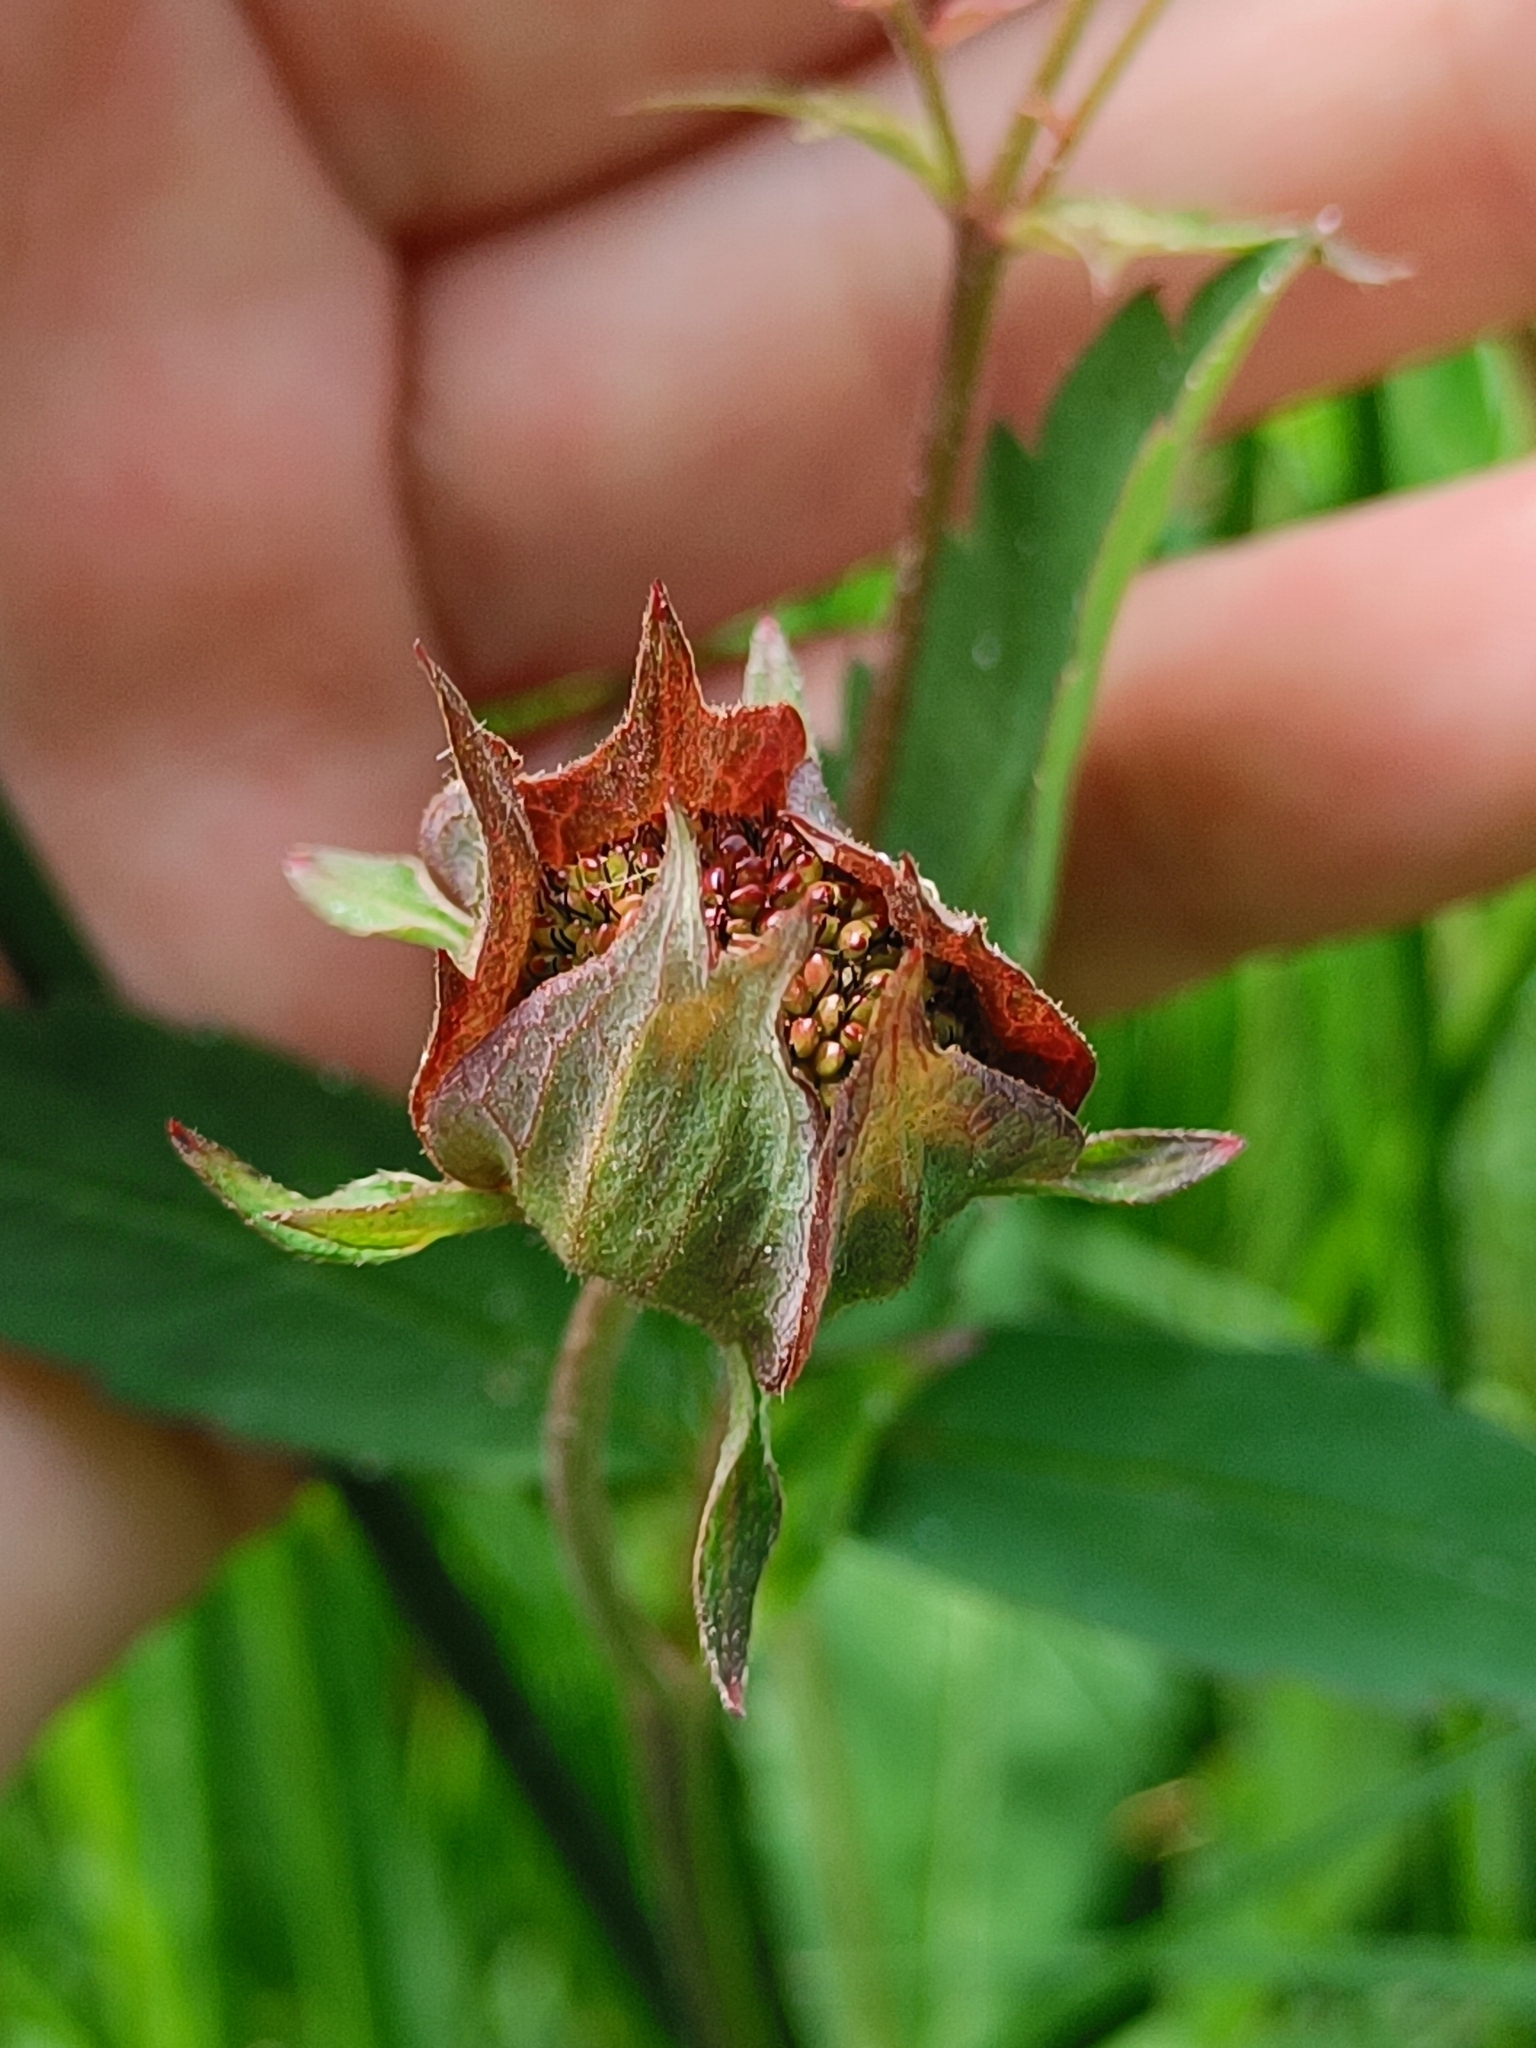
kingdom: Plantae
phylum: Tracheophyta
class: Magnoliopsida
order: Rosales
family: Rosaceae
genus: Comarum
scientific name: Comarum palustre
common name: Marsh cinquefoil
